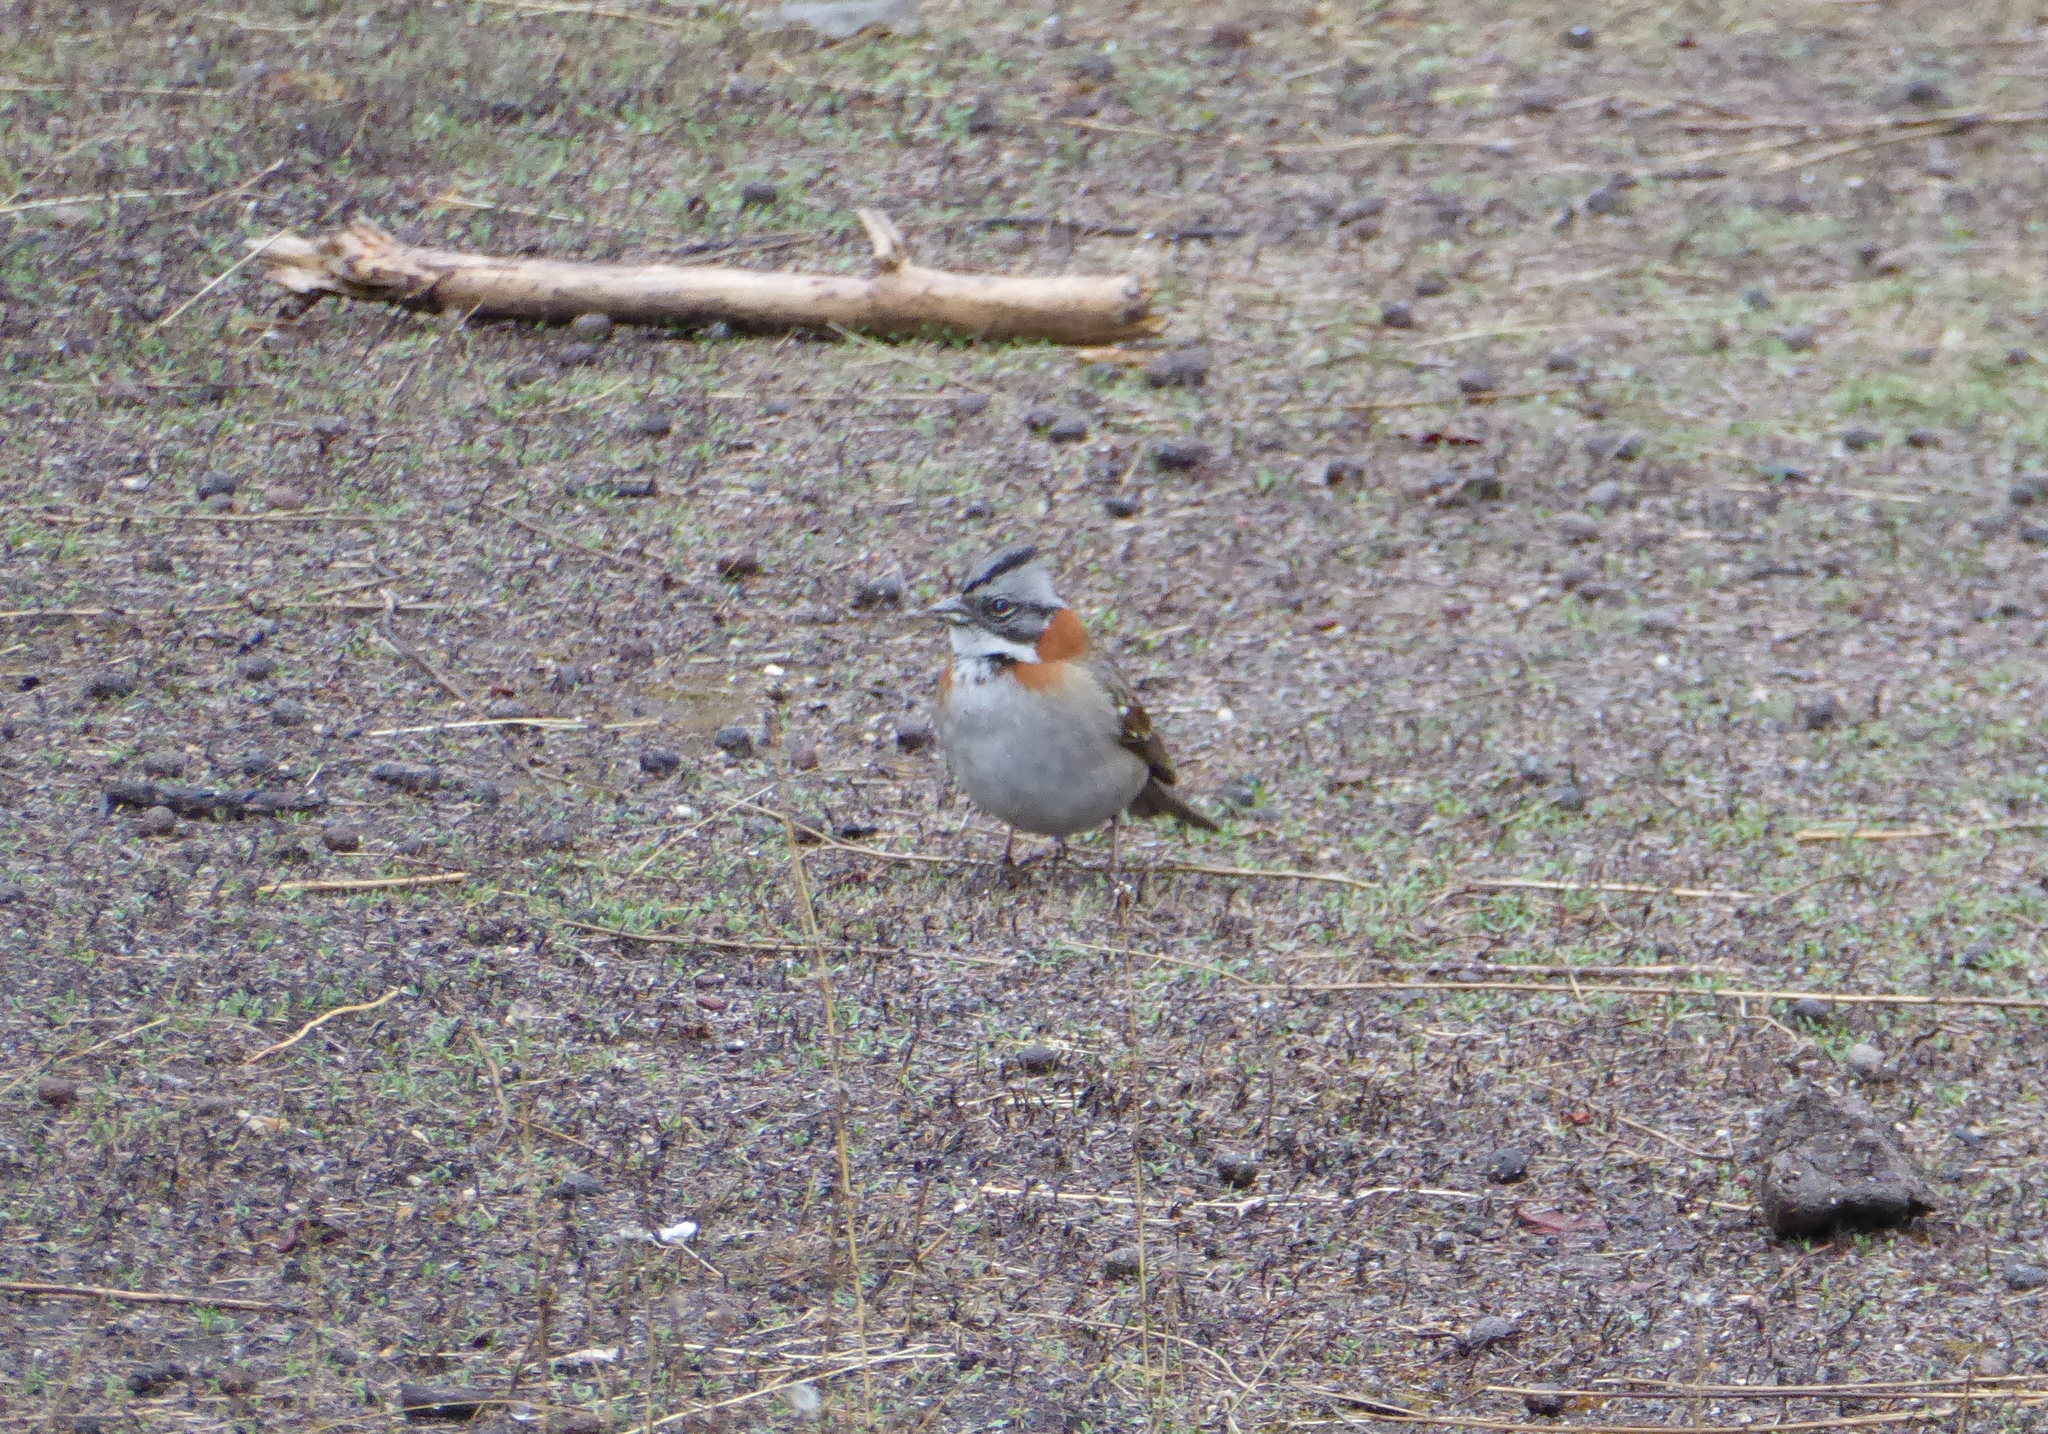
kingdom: Animalia
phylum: Chordata
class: Aves
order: Passeriformes
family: Passerellidae
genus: Zonotrichia
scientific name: Zonotrichia capensis
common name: Rufous-collared sparrow
